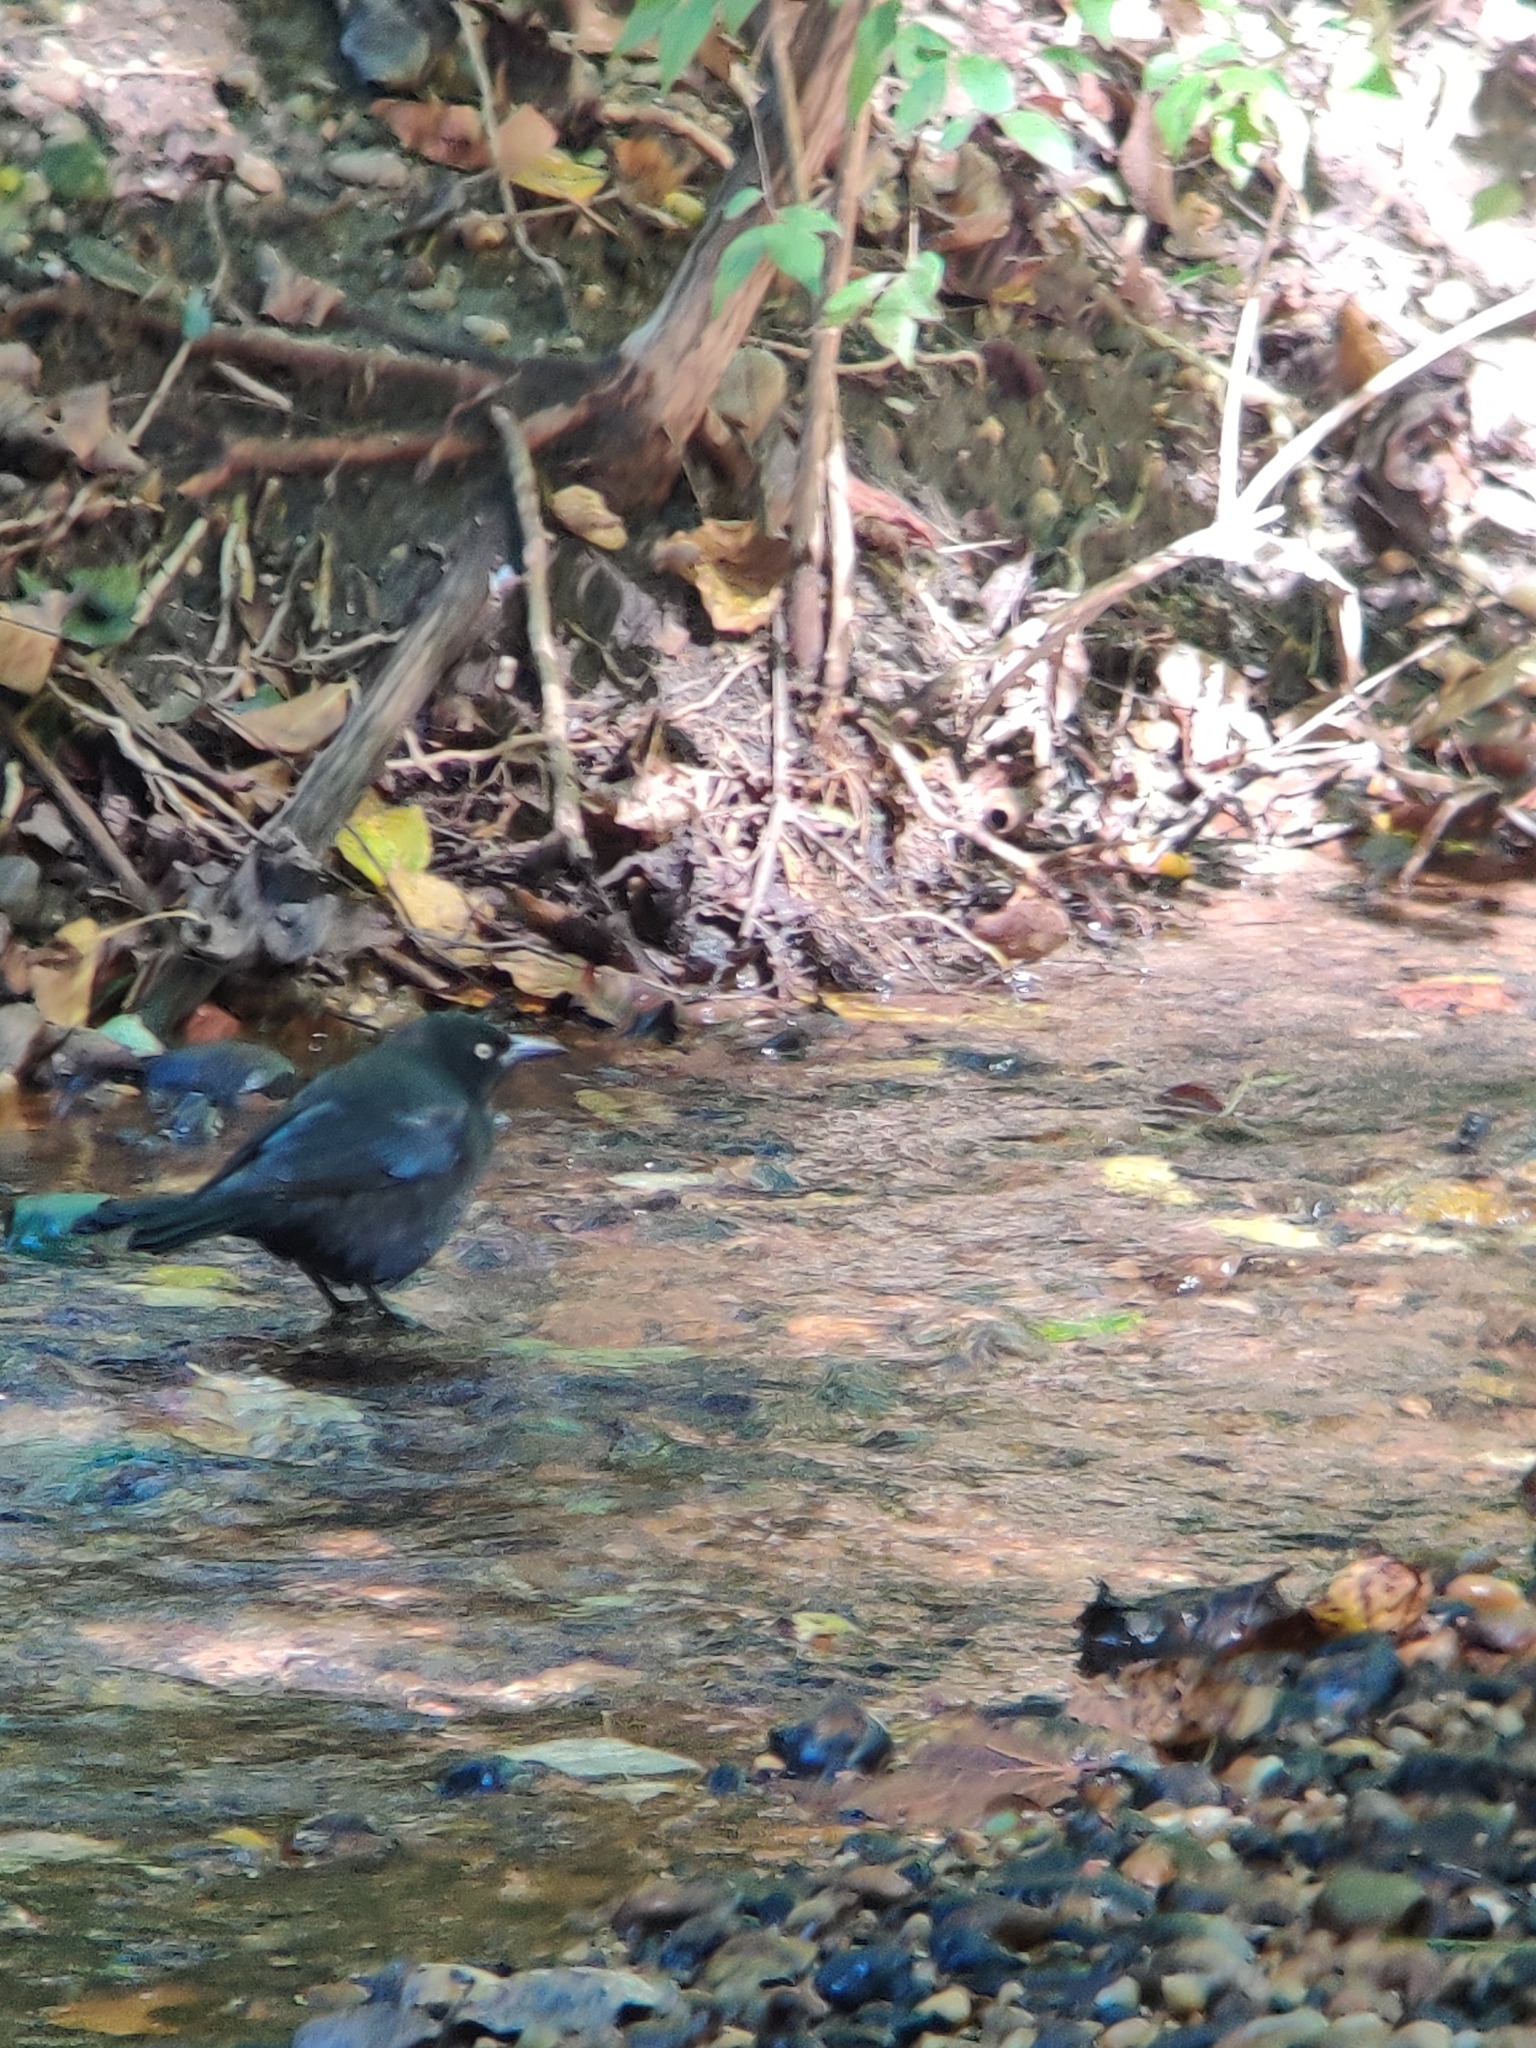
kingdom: Animalia
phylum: Chordata
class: Aves
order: Passeriformes
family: Icteridae
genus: Quiscalus
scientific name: Quiscalus quiscula
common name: Common grackle
